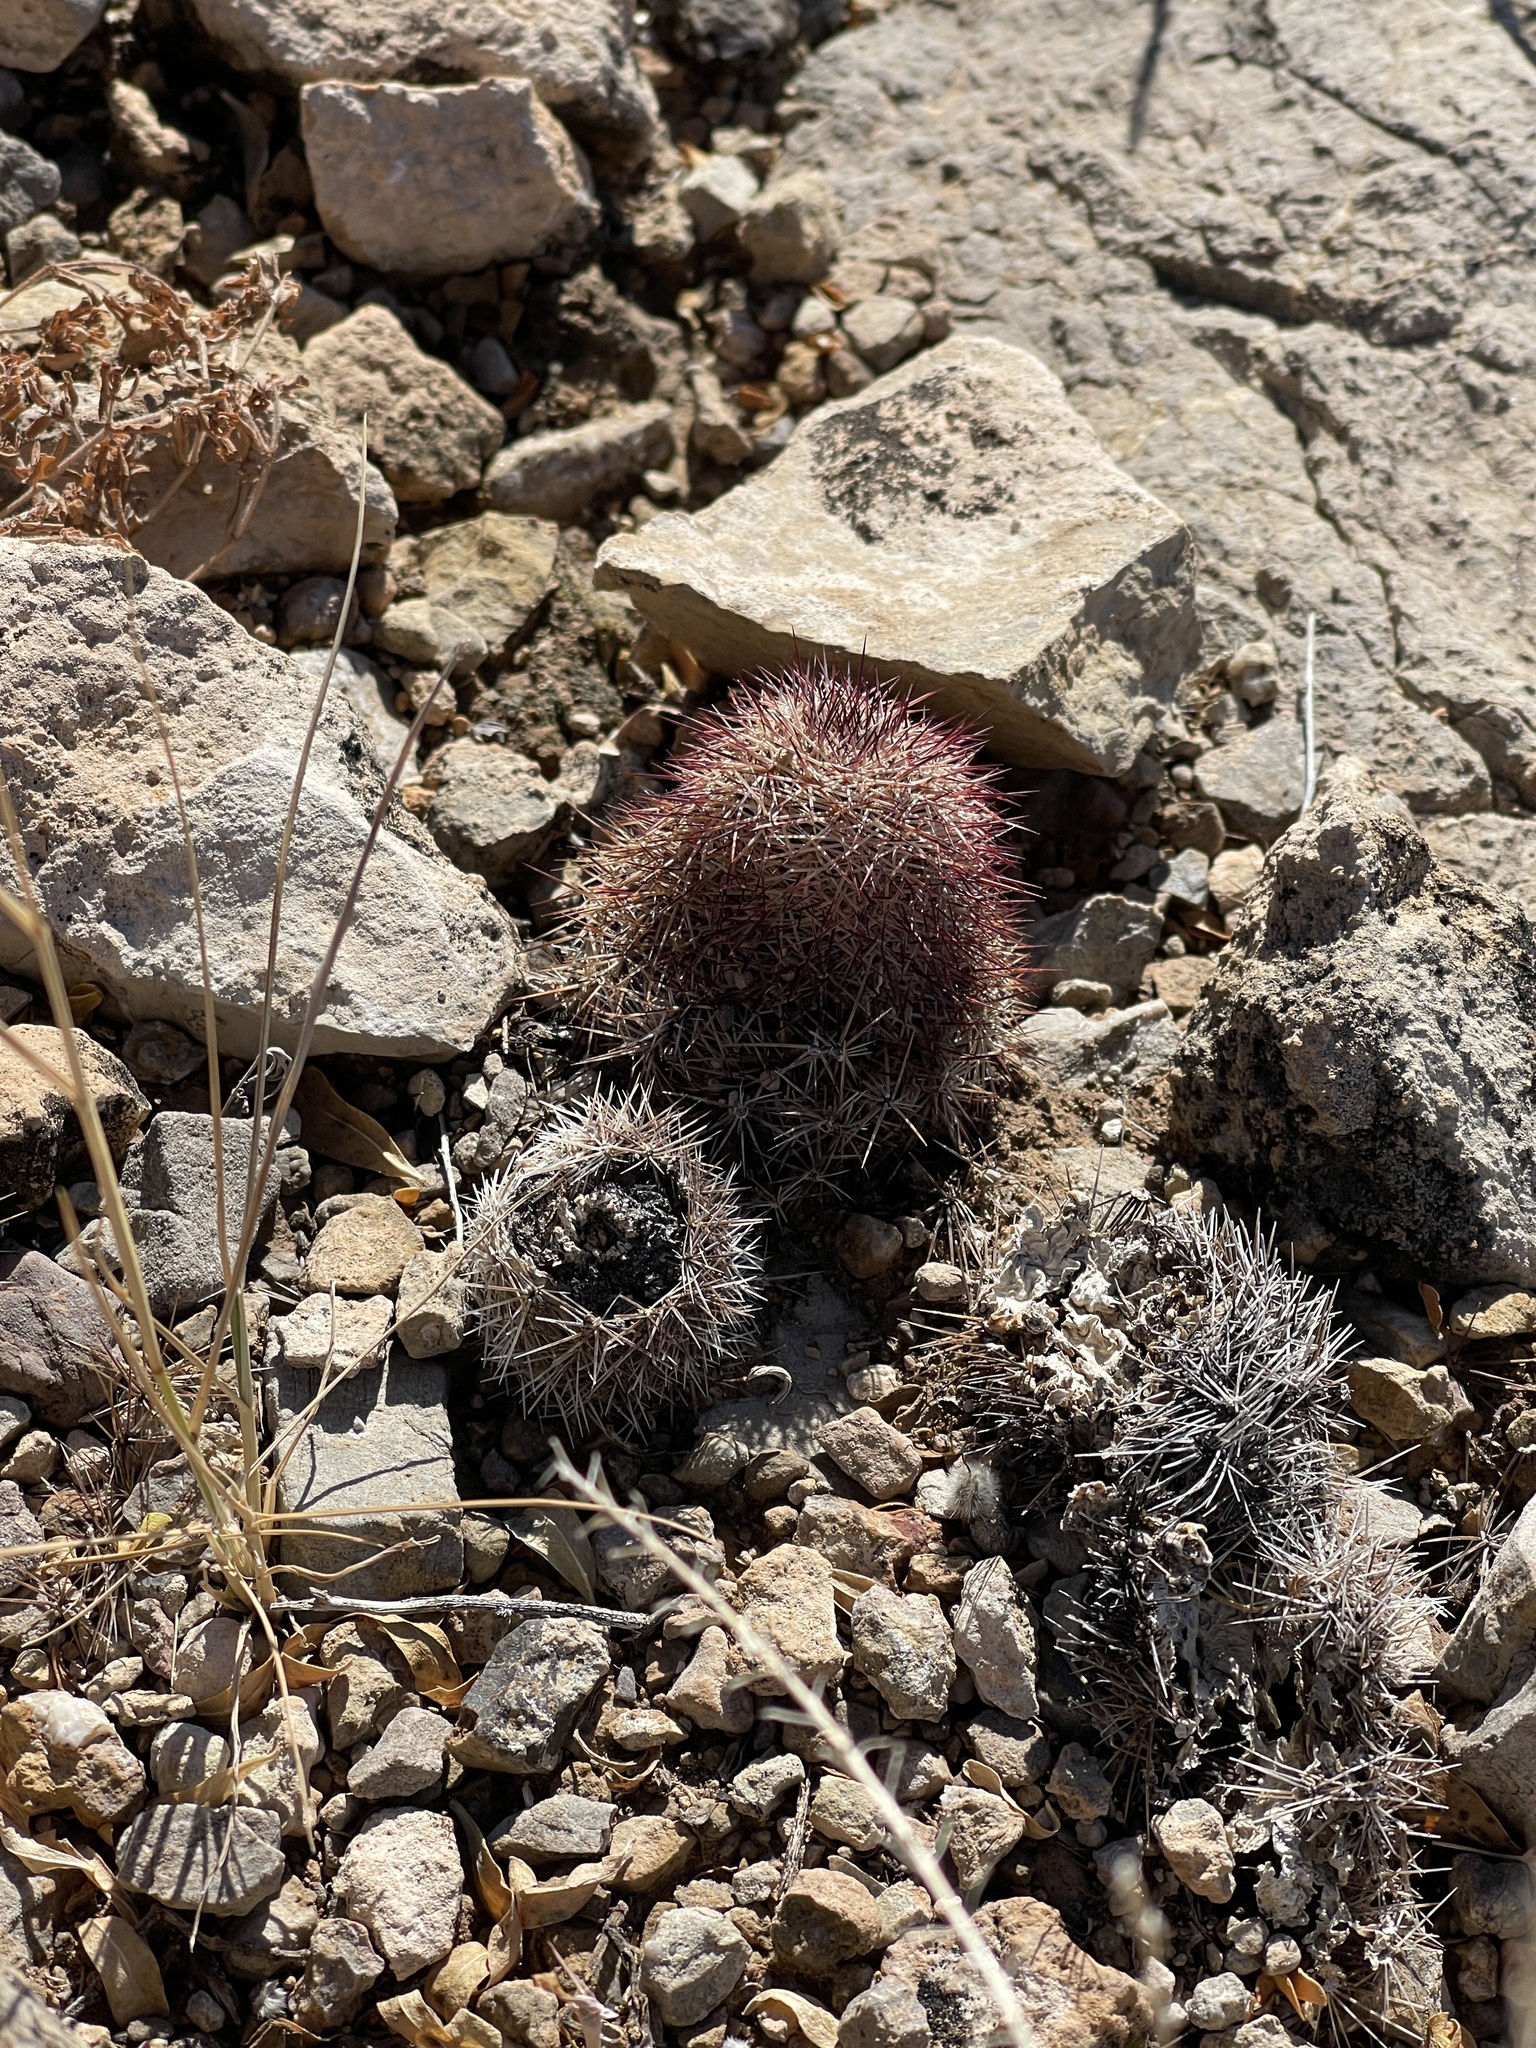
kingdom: Plantae
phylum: Tracheophyta
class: Magnoliopsida
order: Caryophyllales
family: Cactaceae
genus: Echinocereus
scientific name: Echinocereus dasyacanthus
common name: Spiny hedgehog cactus
